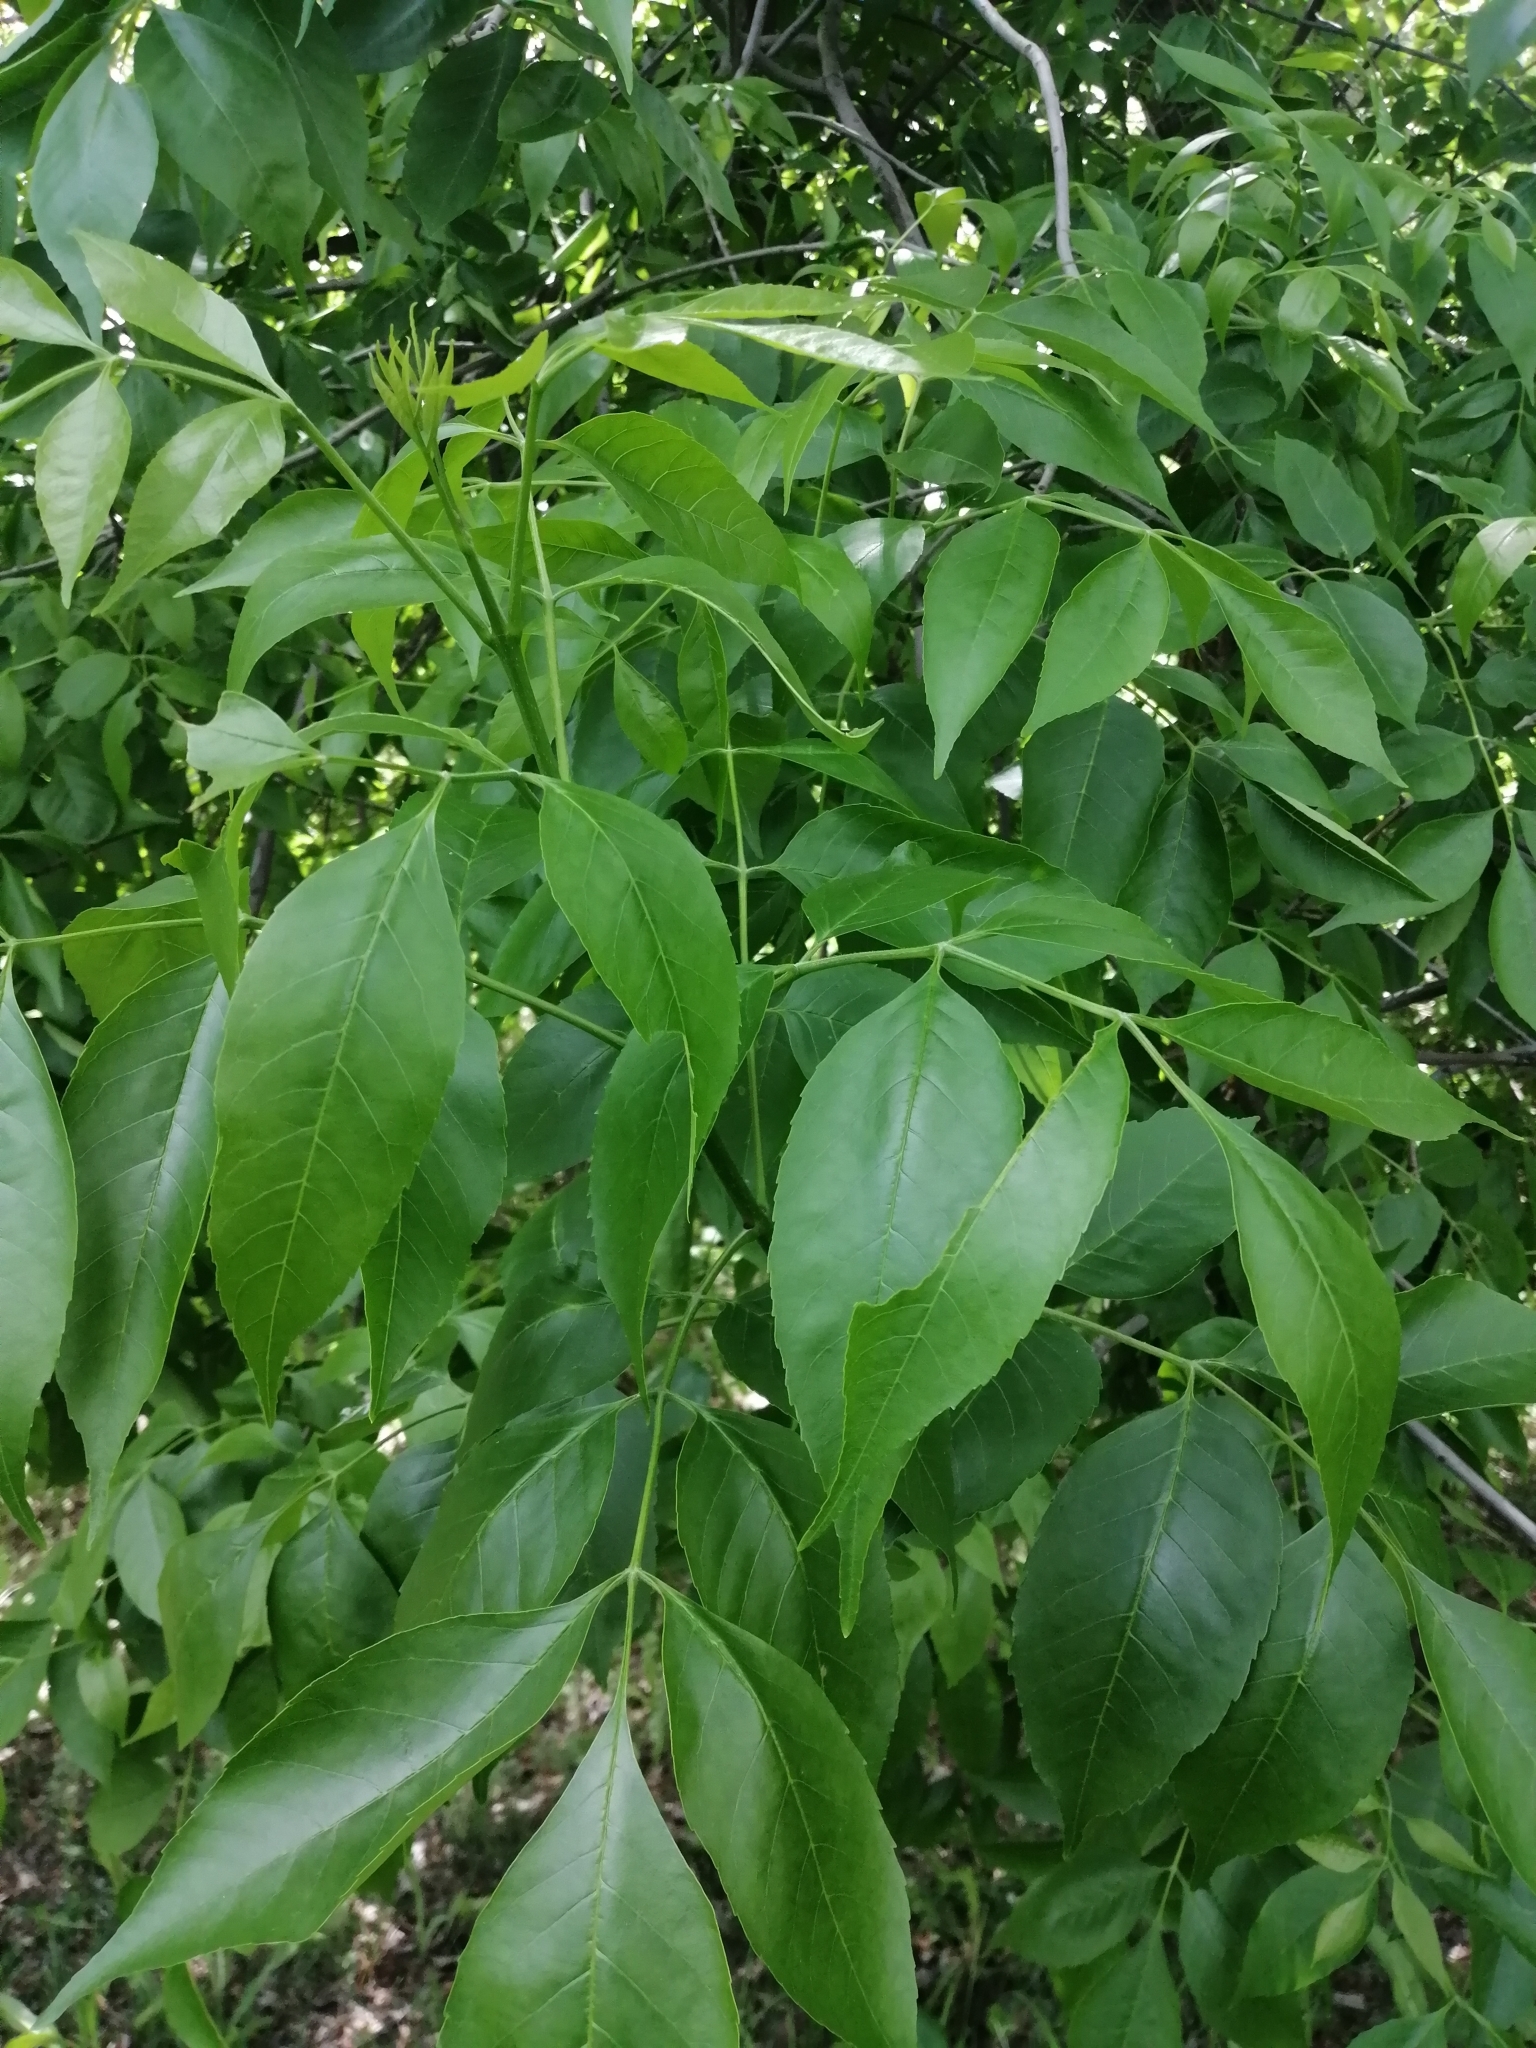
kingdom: Plantae
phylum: Tracheophyta
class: Magnoliopsida
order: Lamiales
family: Oleaceae
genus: Fraxinus
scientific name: Fraxinus pennsylvanica
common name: Green ash
